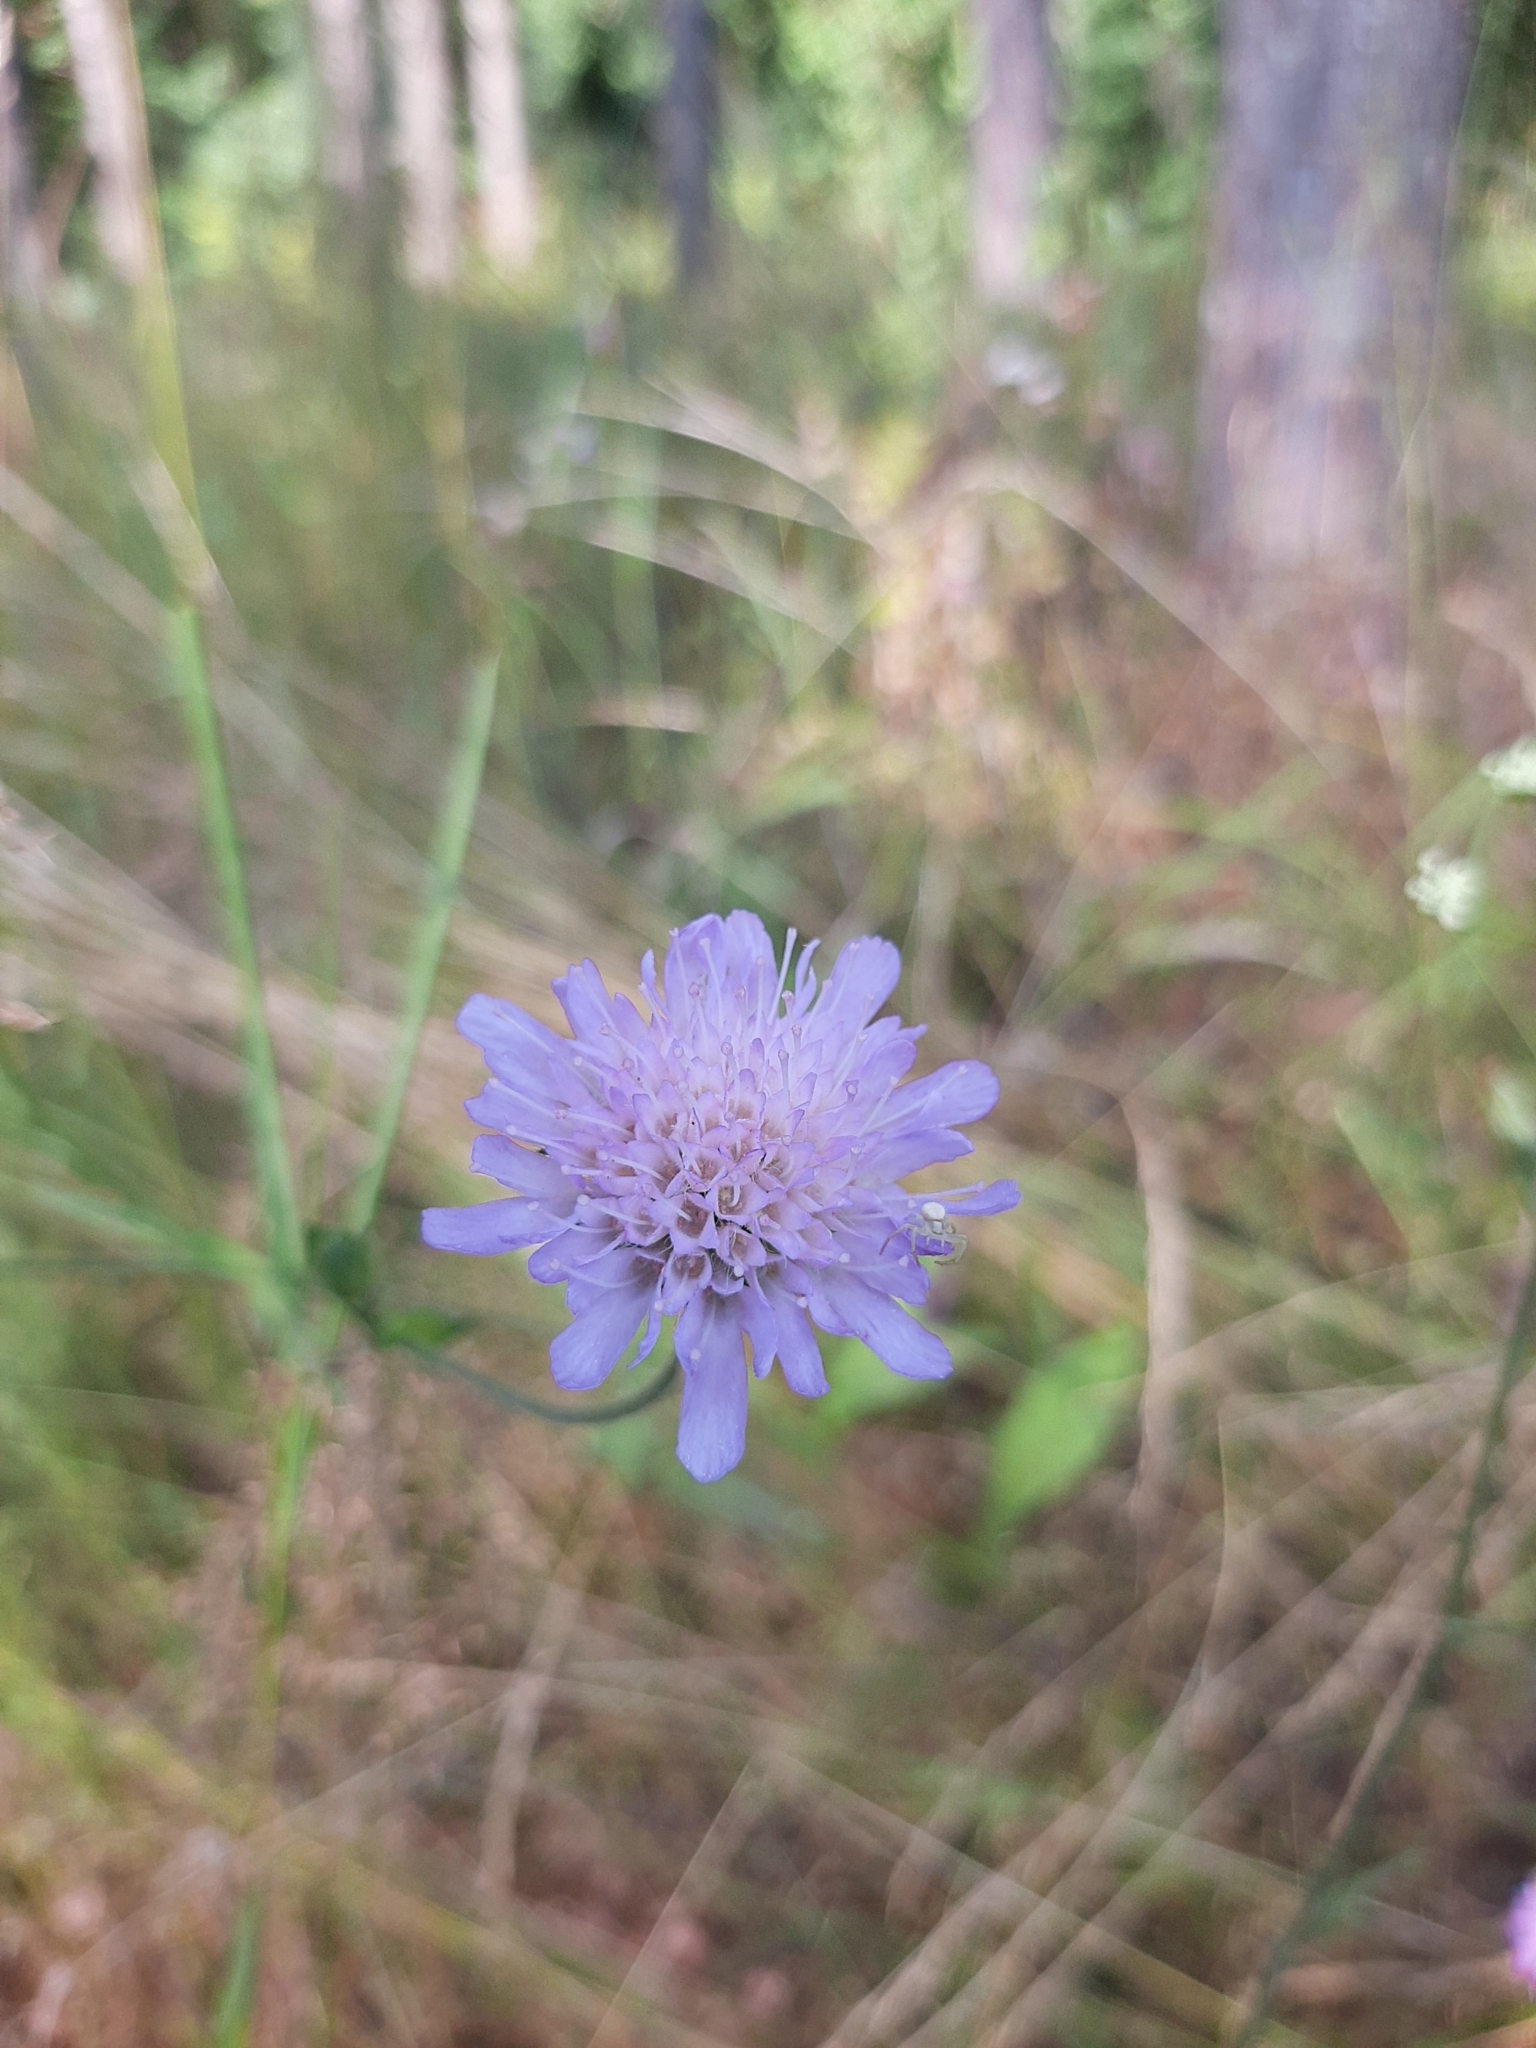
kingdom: Plantae
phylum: Tracheophyta
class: Magnoliopsida
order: Dipsacales
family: Caprifoliaceae
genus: Knautia
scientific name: Knautia arvensis
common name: Field scabiosa
